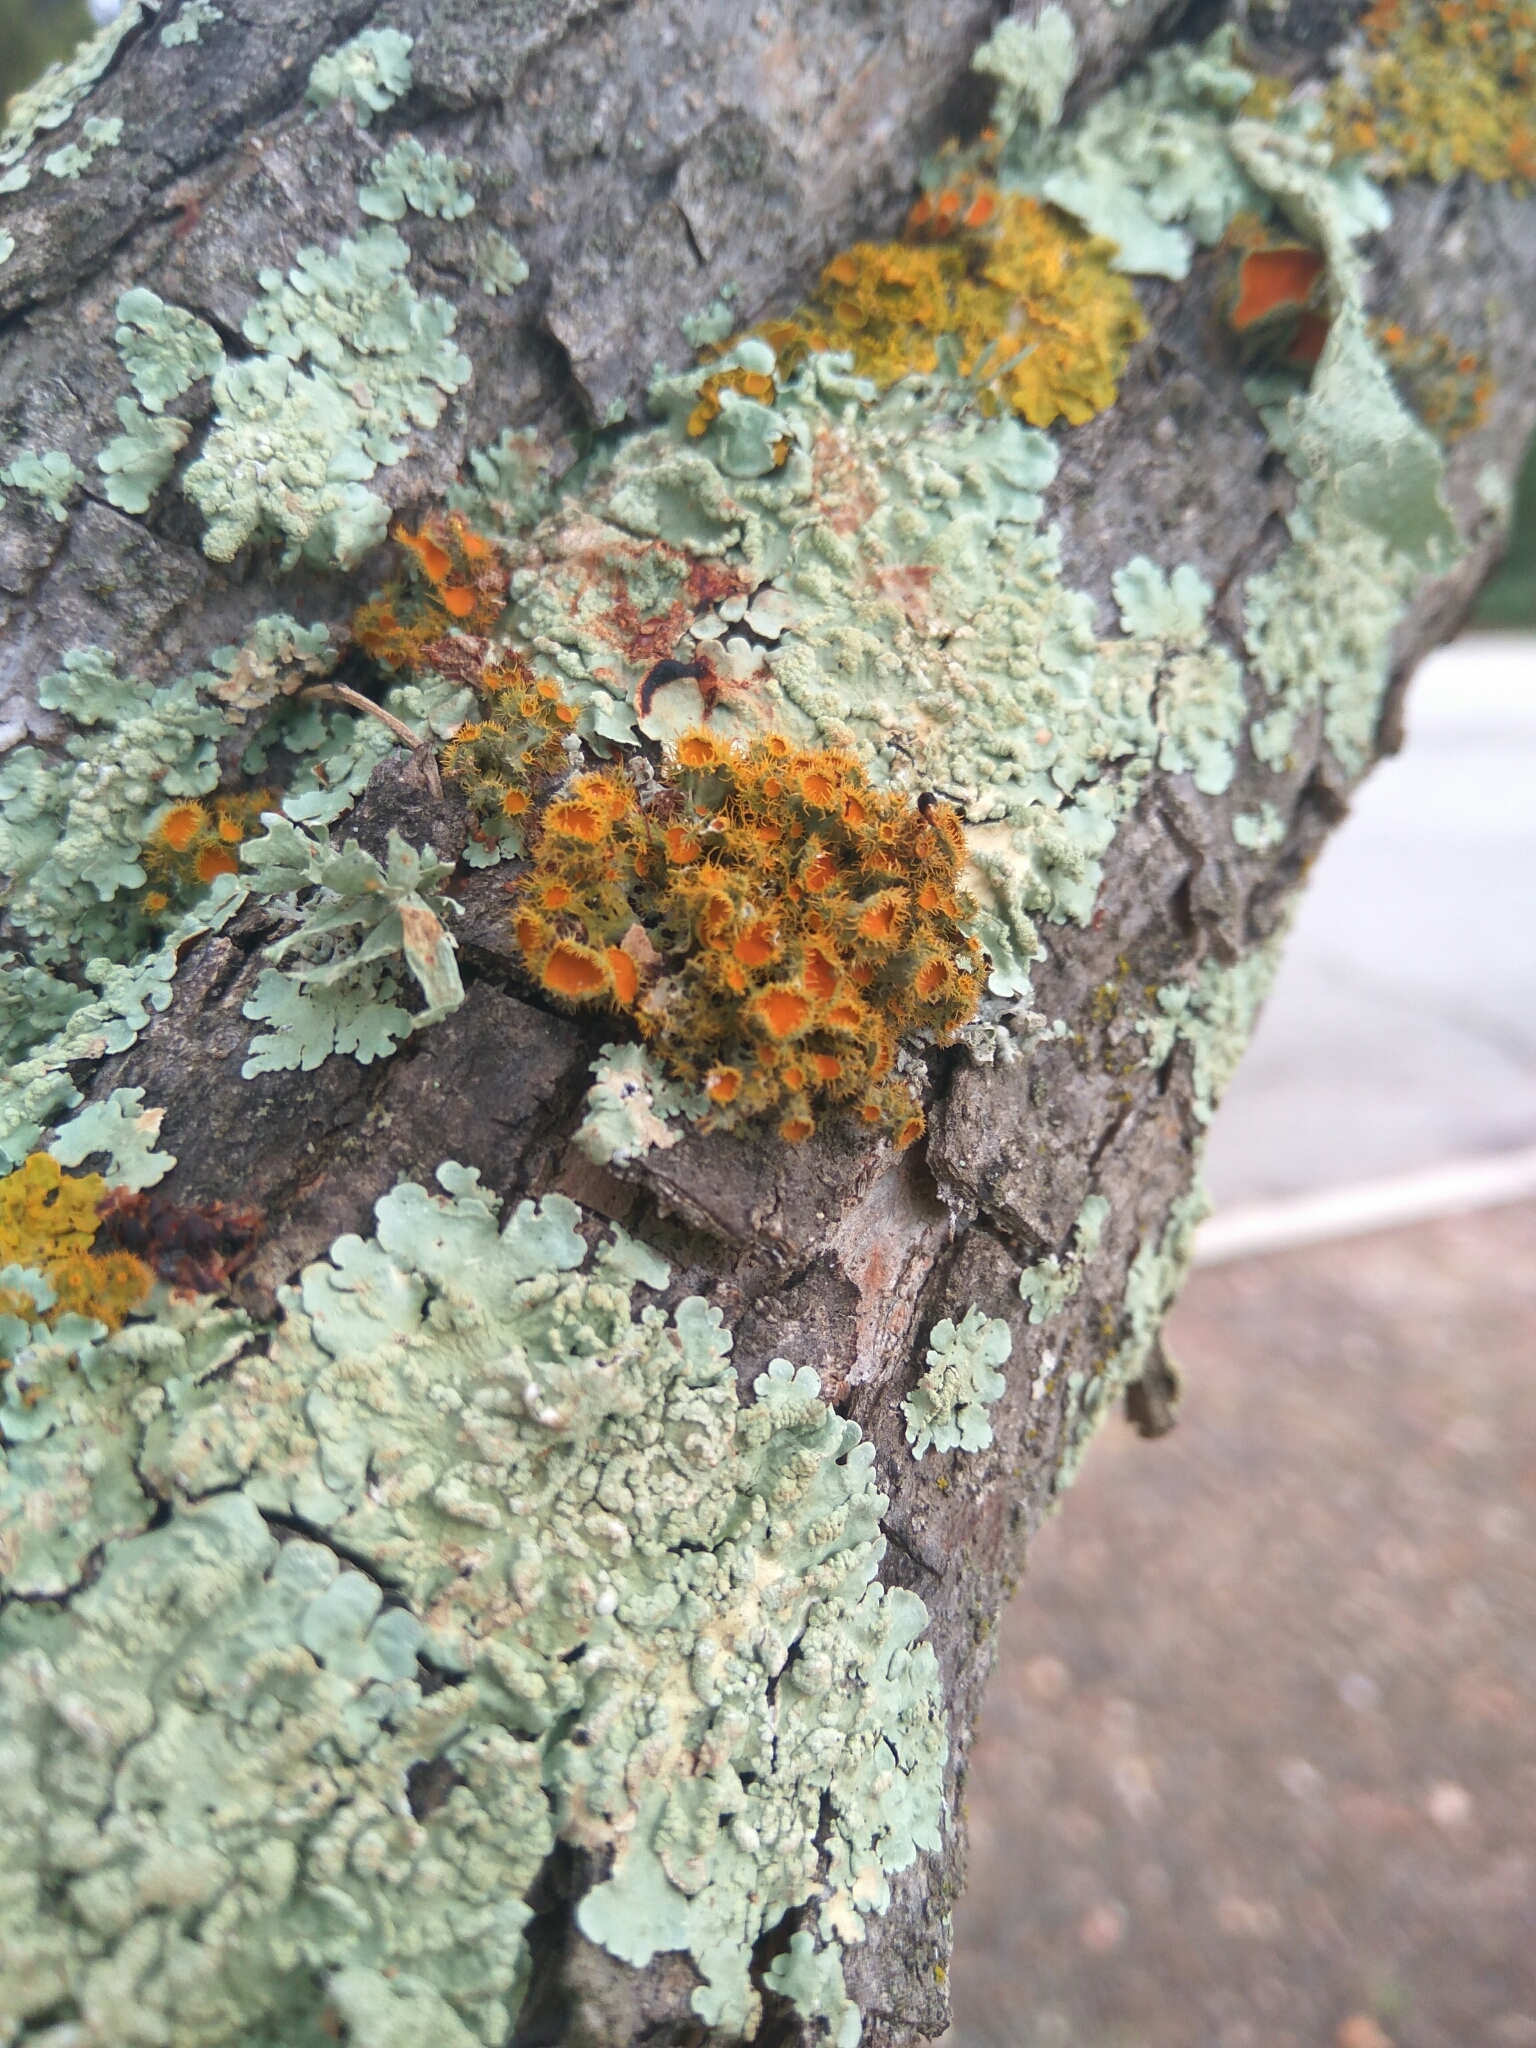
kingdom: Fungi
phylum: Ascomycota
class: Lecanoromycetes
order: Teloschistales
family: Teloschistaceae
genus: Niorma
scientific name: Niorma chrysophthalma
